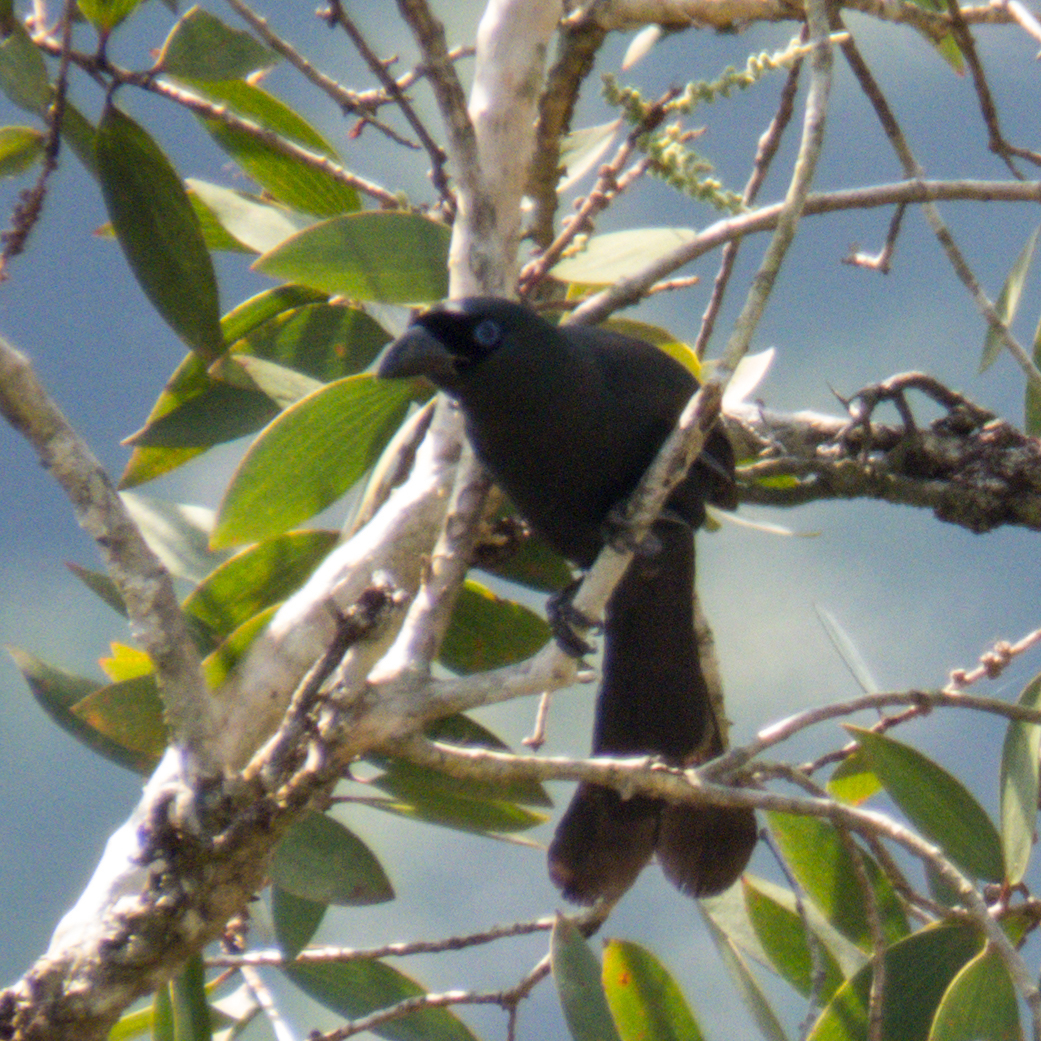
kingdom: Animalia
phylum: Chordata
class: Aves
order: Passeriformes
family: Corvidae
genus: Crypsirina
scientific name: Crypsirina temia
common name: Racket-tailed treepie
